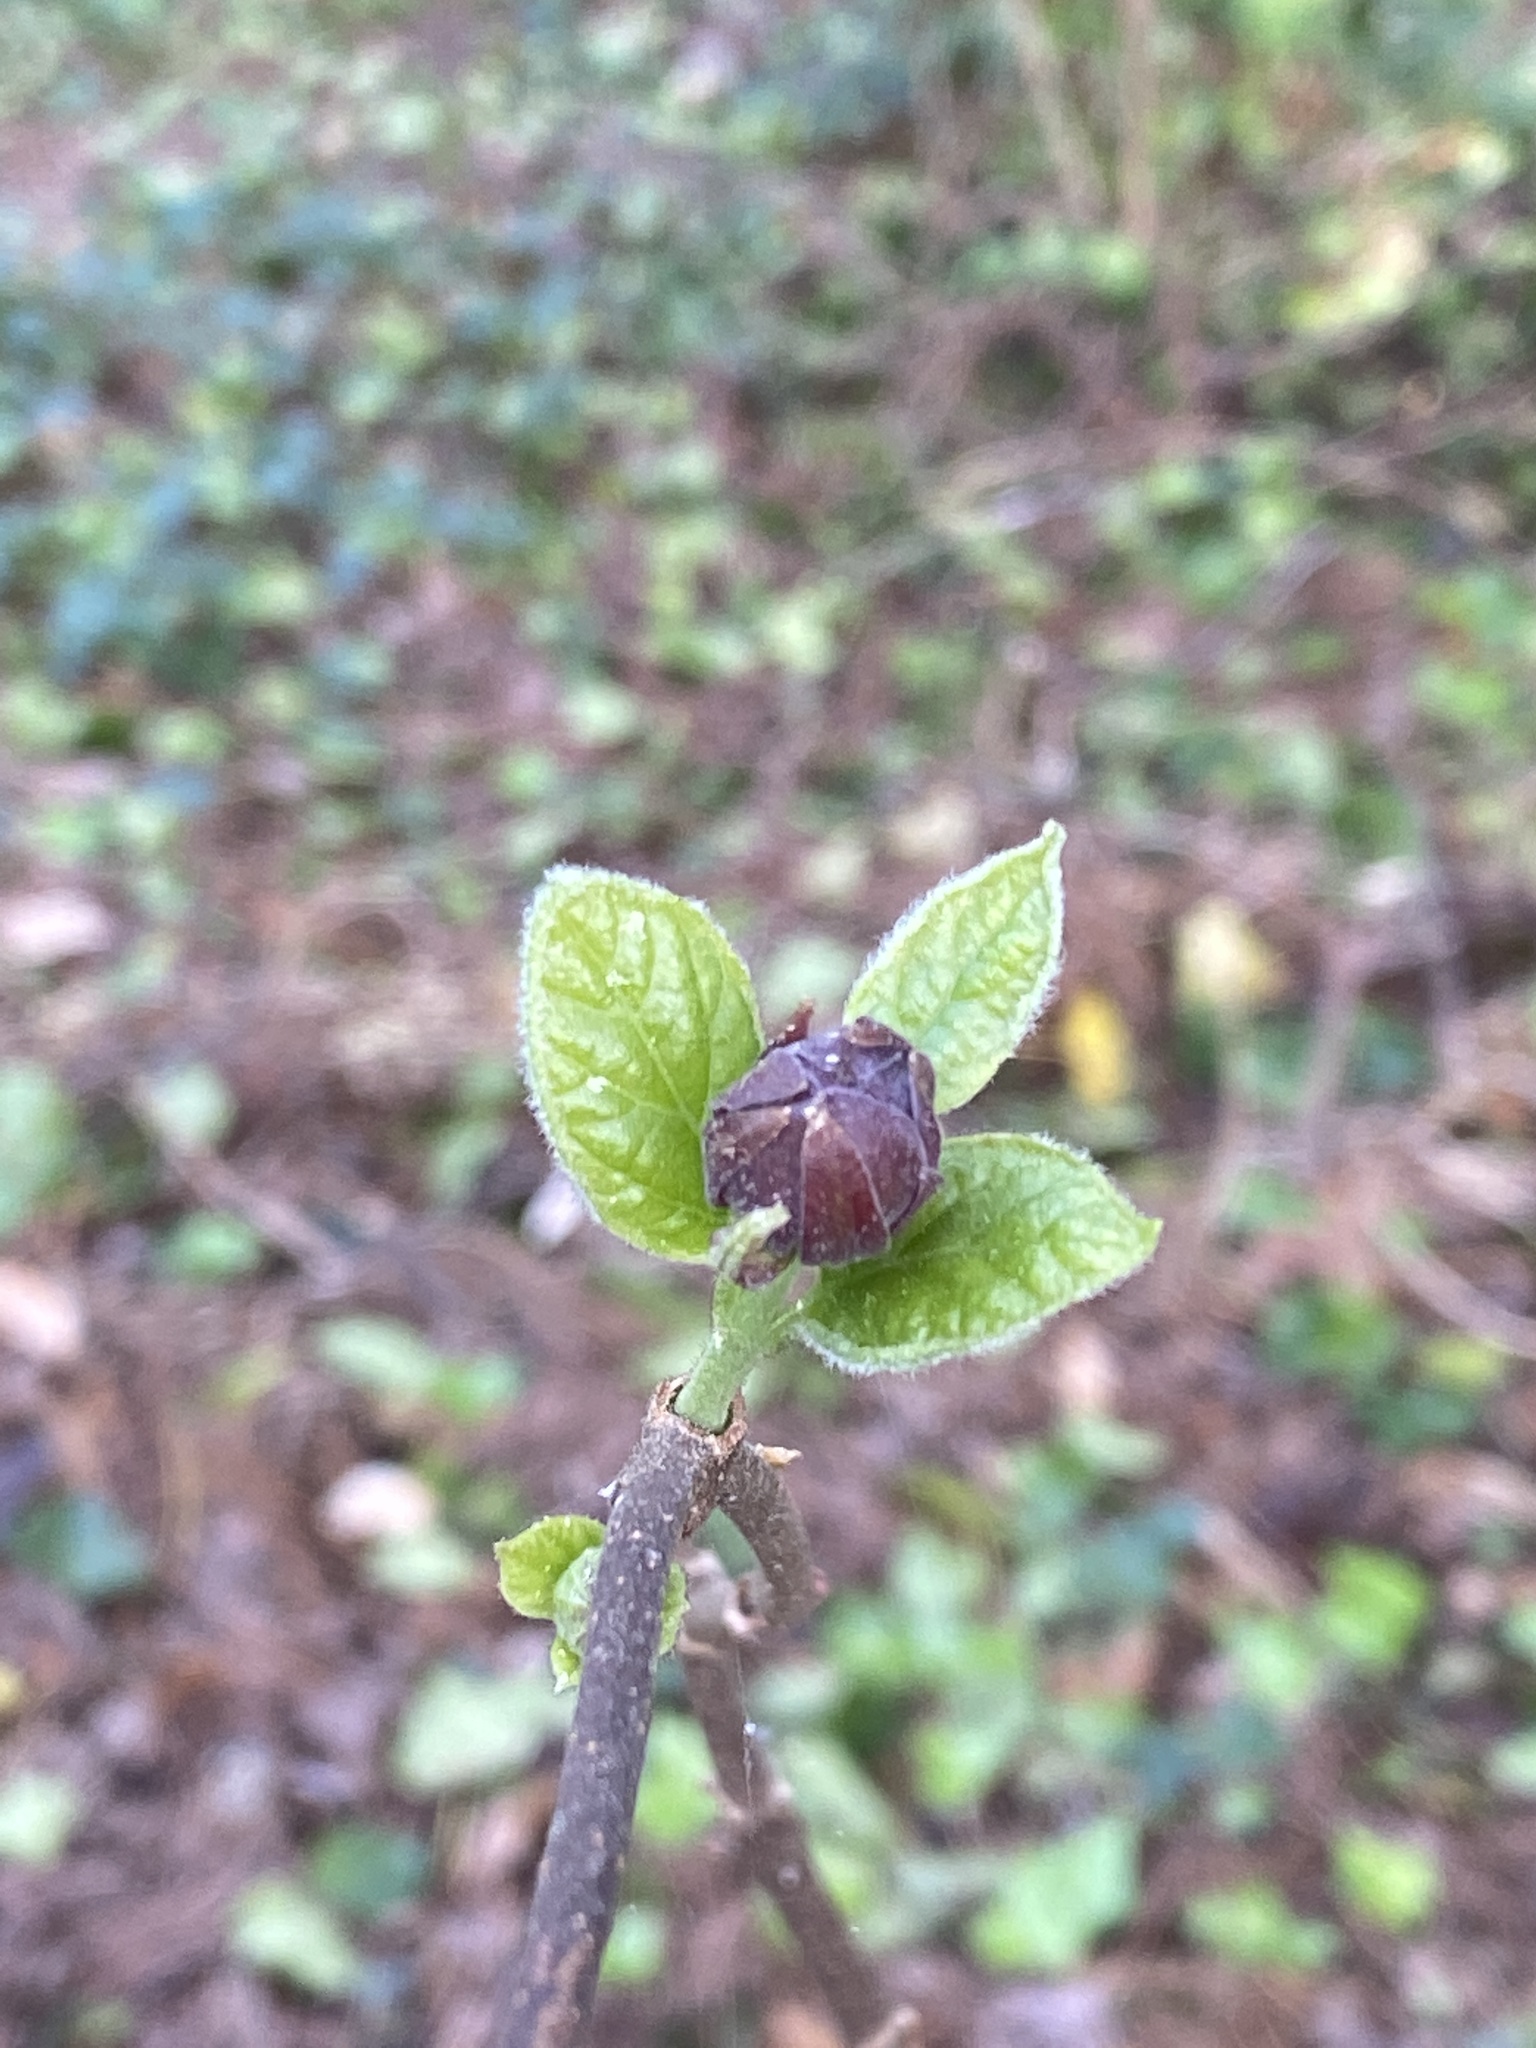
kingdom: Plantae
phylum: Tracheophyta
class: Magnoliopsida
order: Laurales
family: Calycanthaceae
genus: Calycanthus
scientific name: Calycanthus floridus
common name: Carolina-allspice
